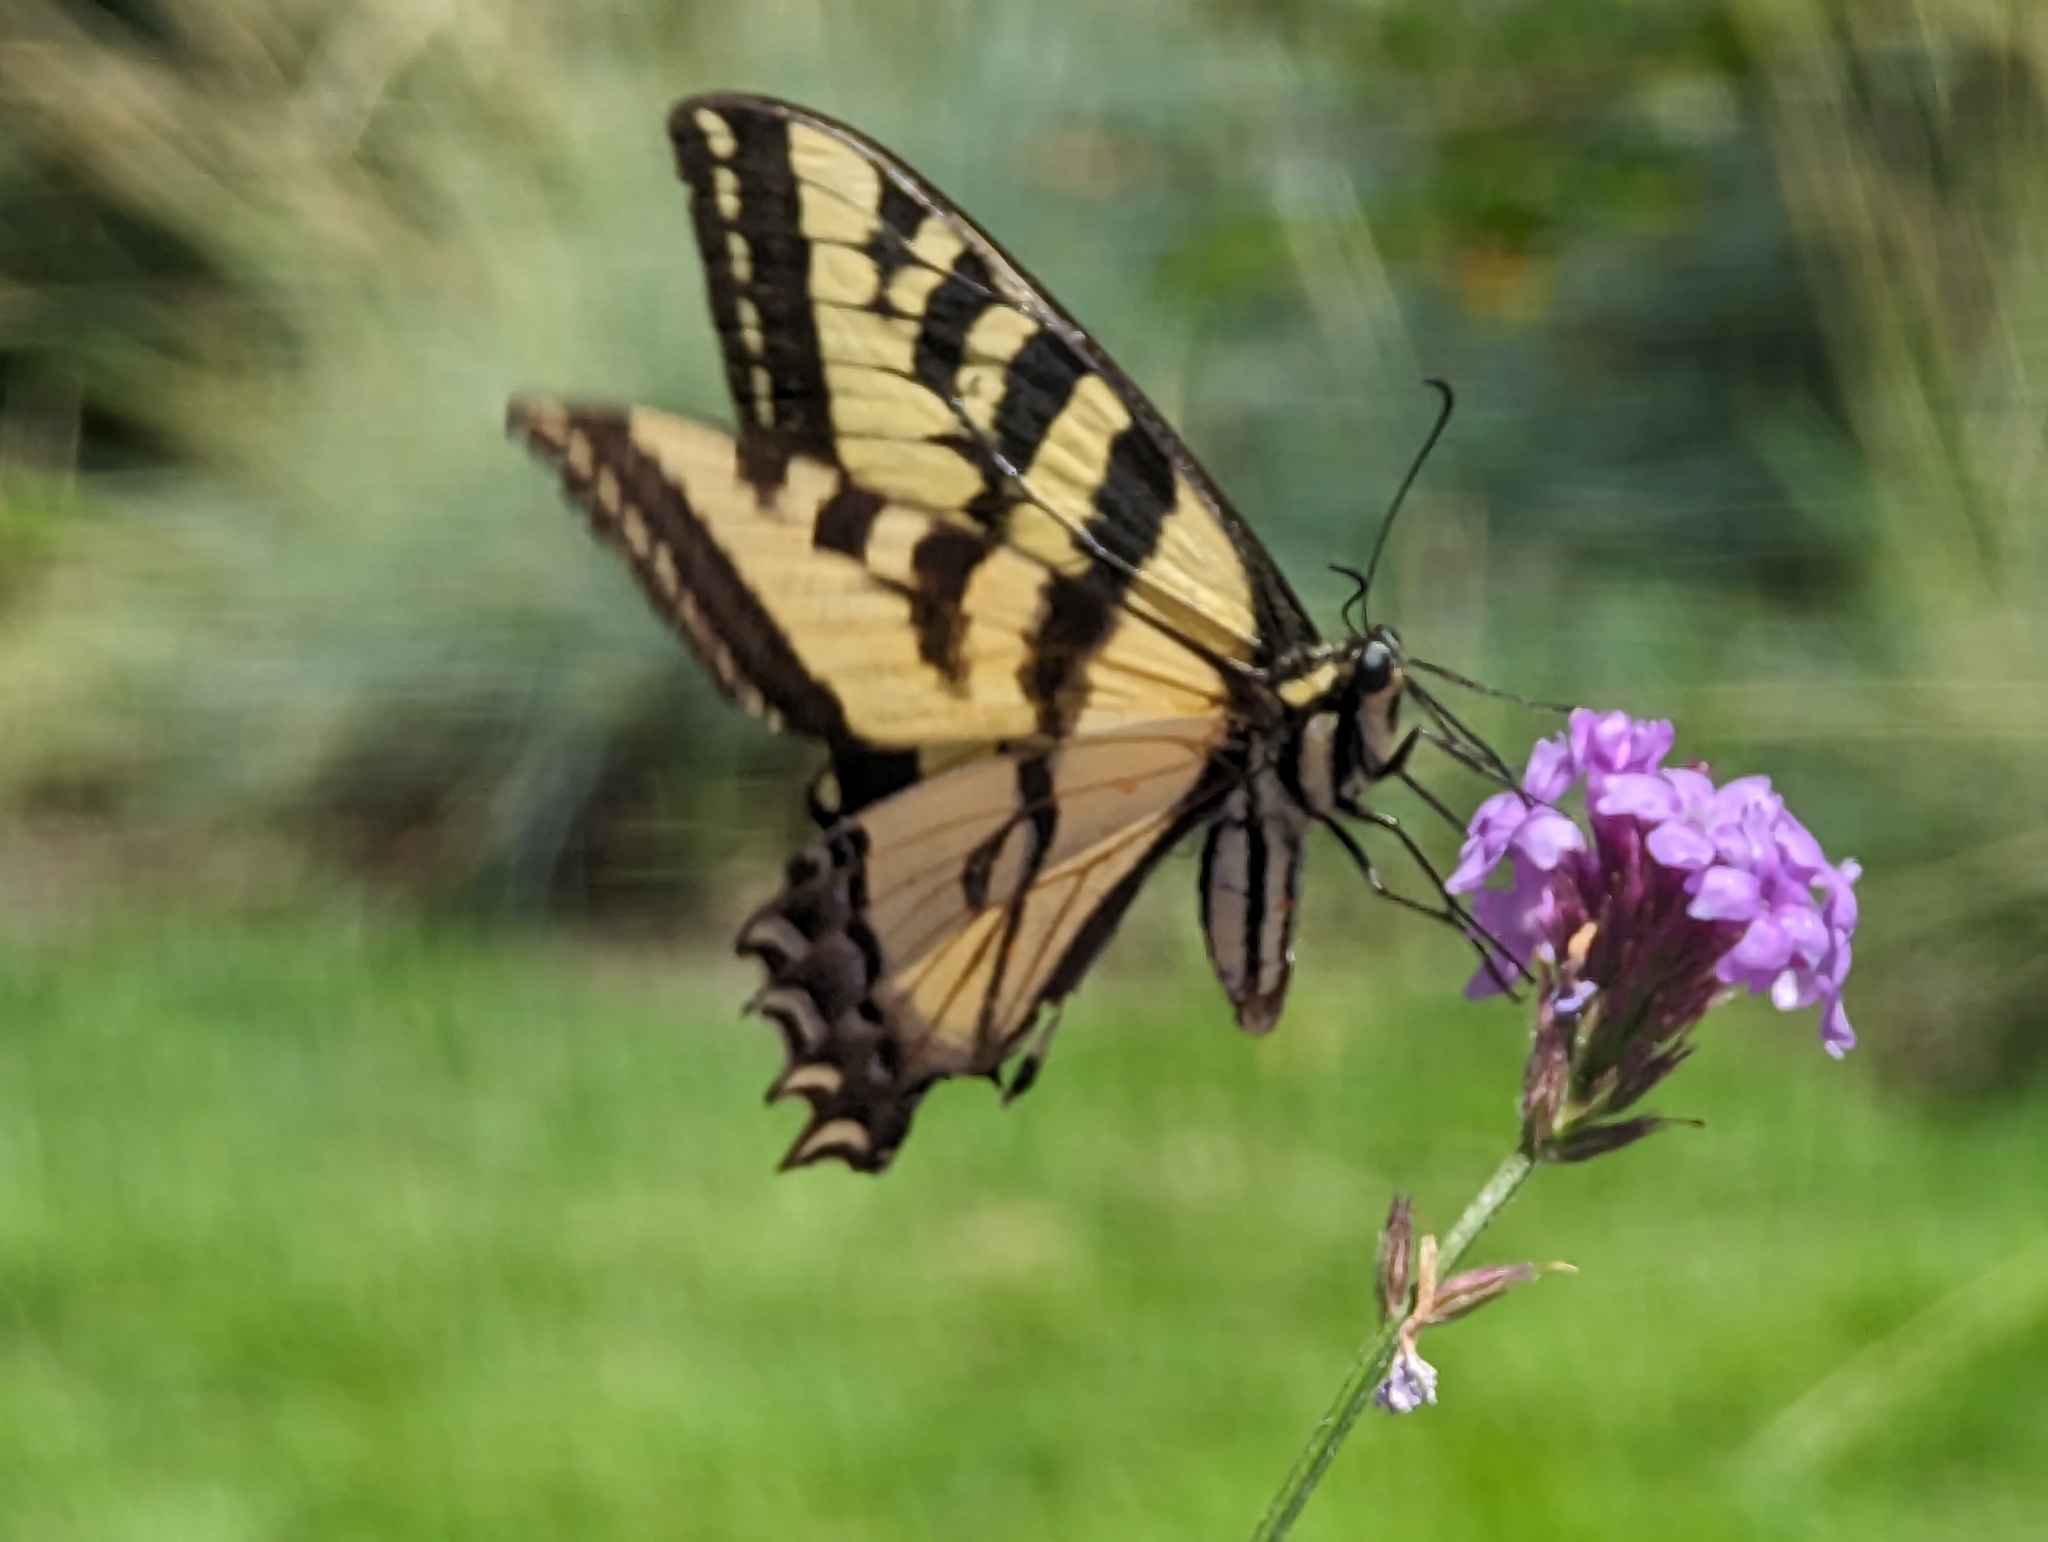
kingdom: Animalia
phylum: Arthropoda
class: Insecta
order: Lepidoptera
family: Papilionidae
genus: Papilio
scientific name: Papilio rutulus
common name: Western tiger swallowtail
